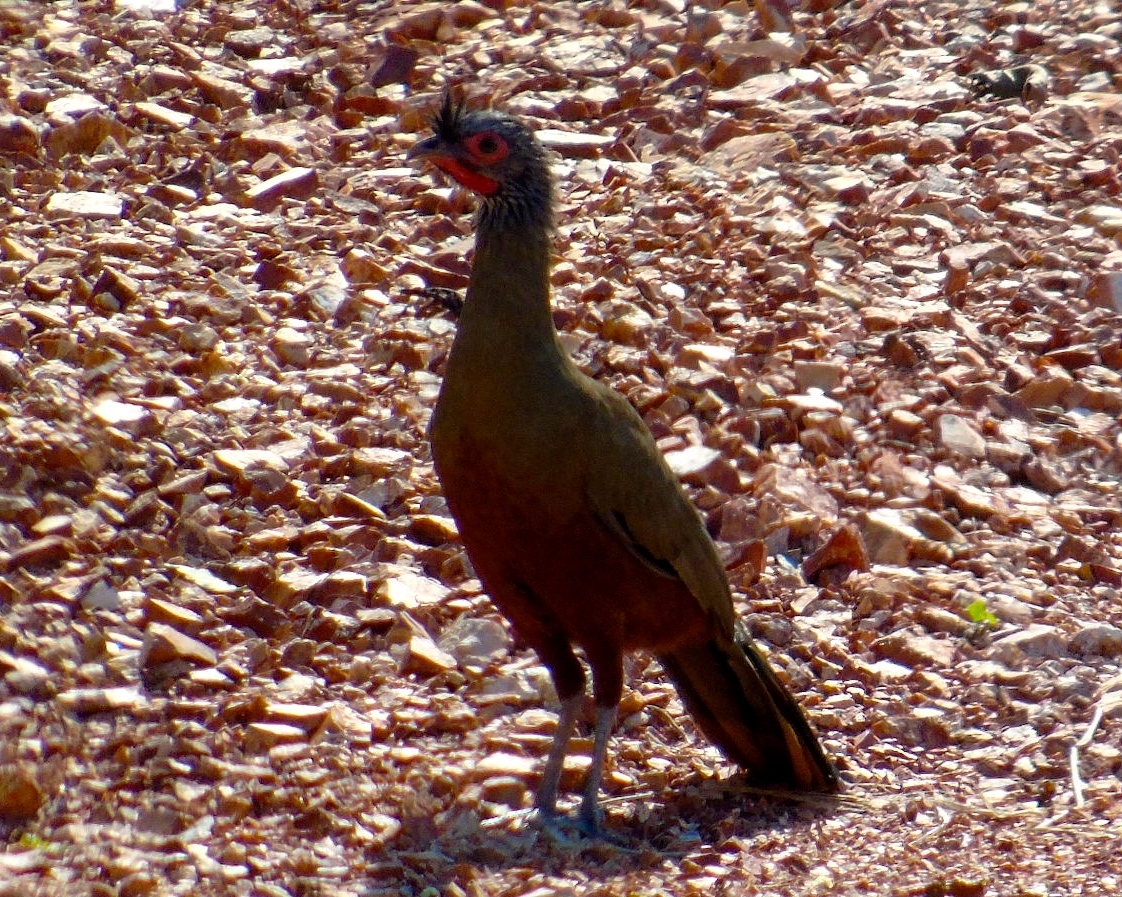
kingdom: Animalia
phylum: Chordata
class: Aves
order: Galliformes
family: Cracidae
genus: Ortalis
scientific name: Ortalis wagleri
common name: Rufous-bellied chachalaca
